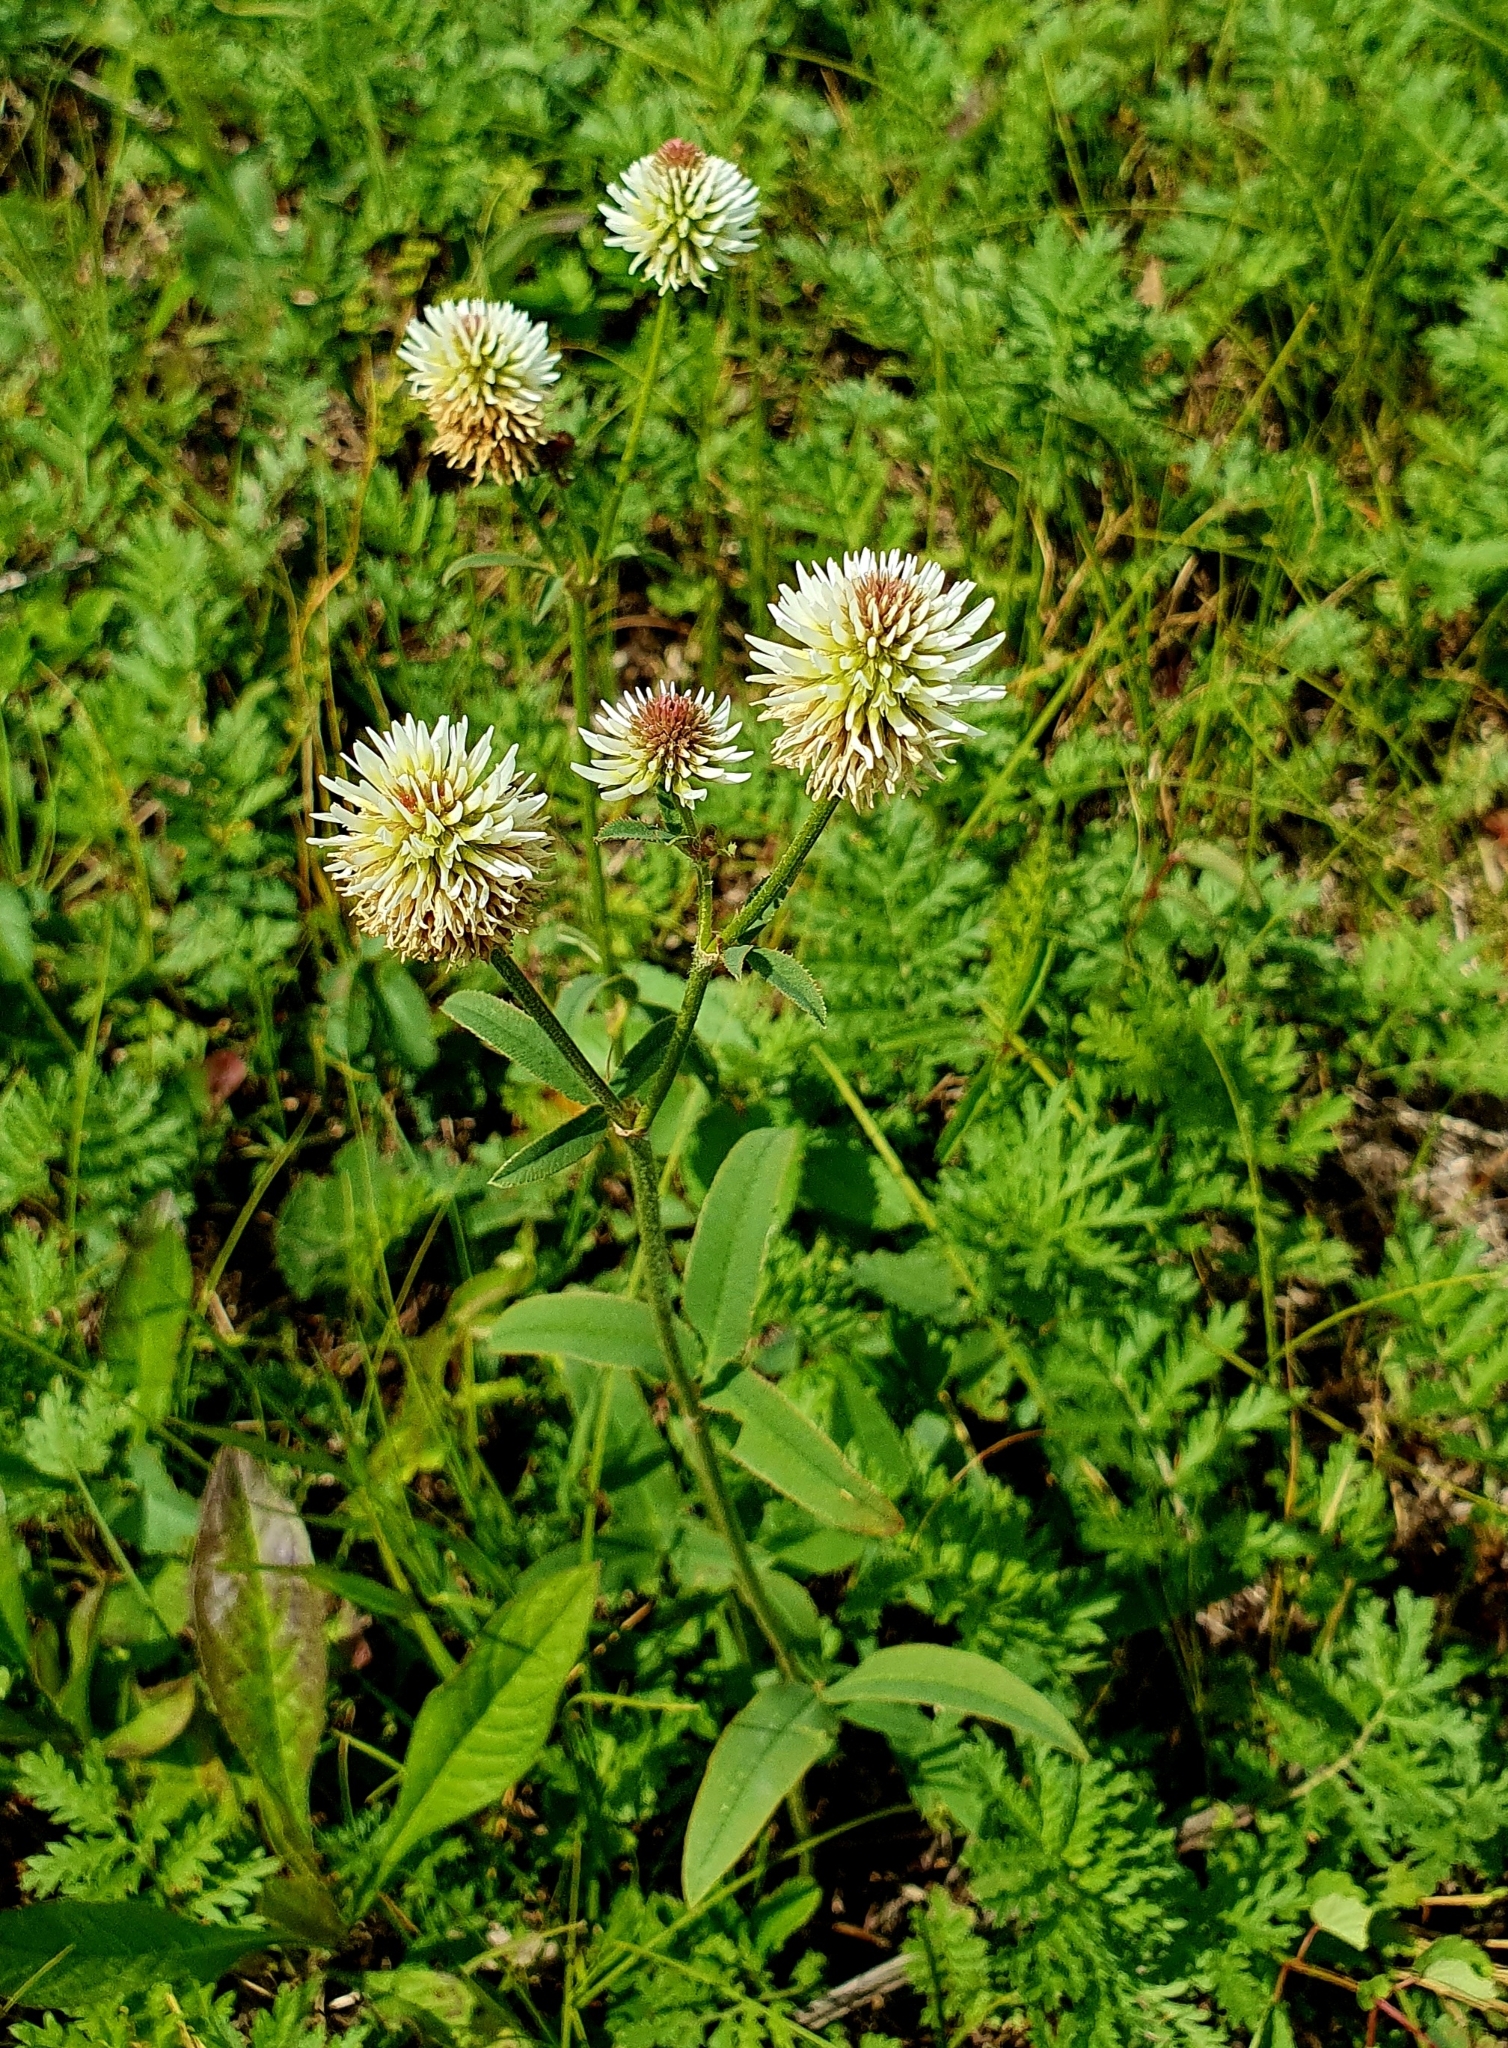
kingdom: Plantae
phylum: Tracheophyta
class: Magnoliopsida
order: Fabales
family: Fabaceae
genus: Trifolium
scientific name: Trifolium montanum
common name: Mountain clover
